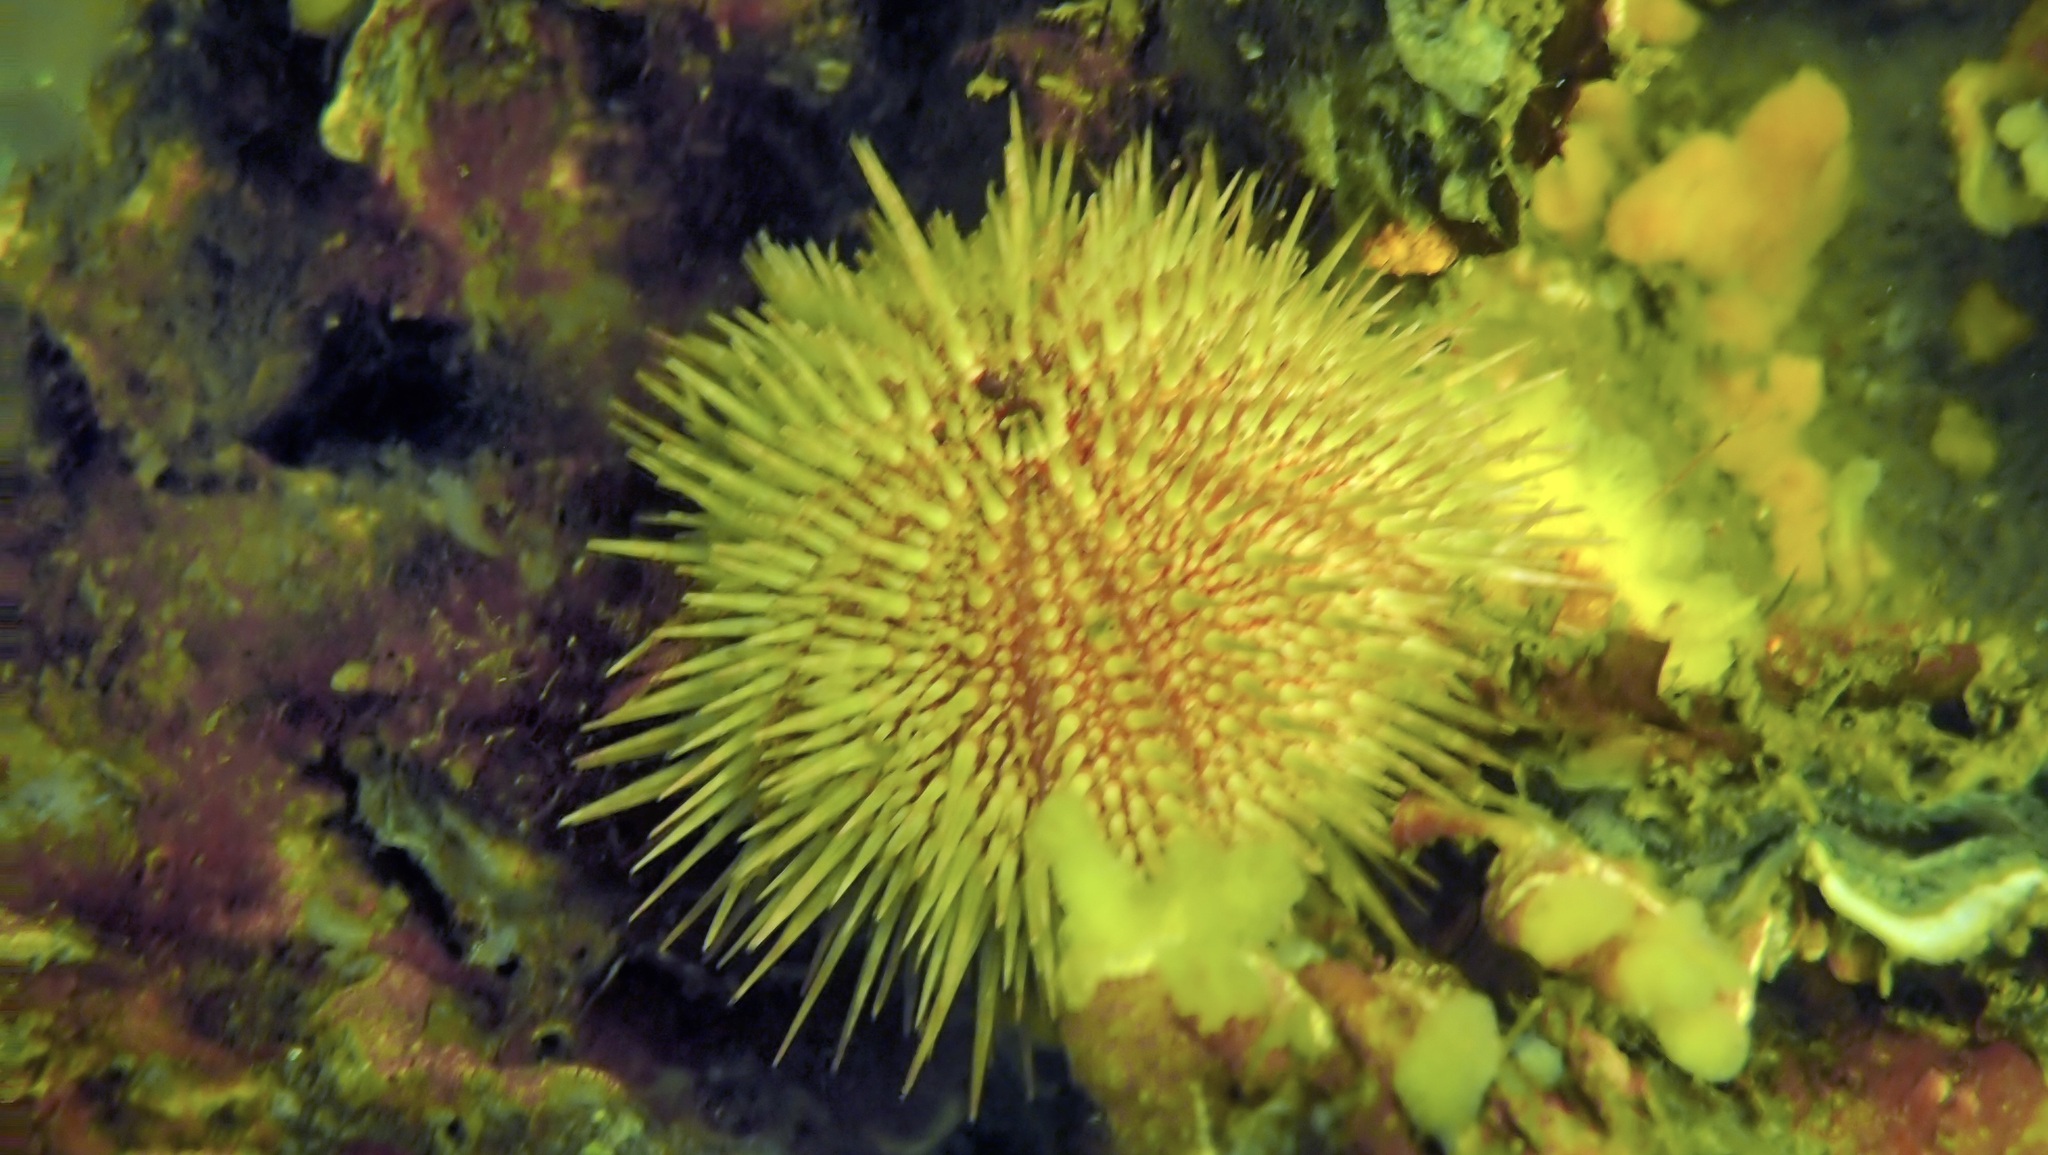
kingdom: Animalia
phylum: Echinodermata
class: Echinoidea
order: Camarodonta
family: Parechinidae
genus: Psammechinus
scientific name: Psammechinus miliaris
